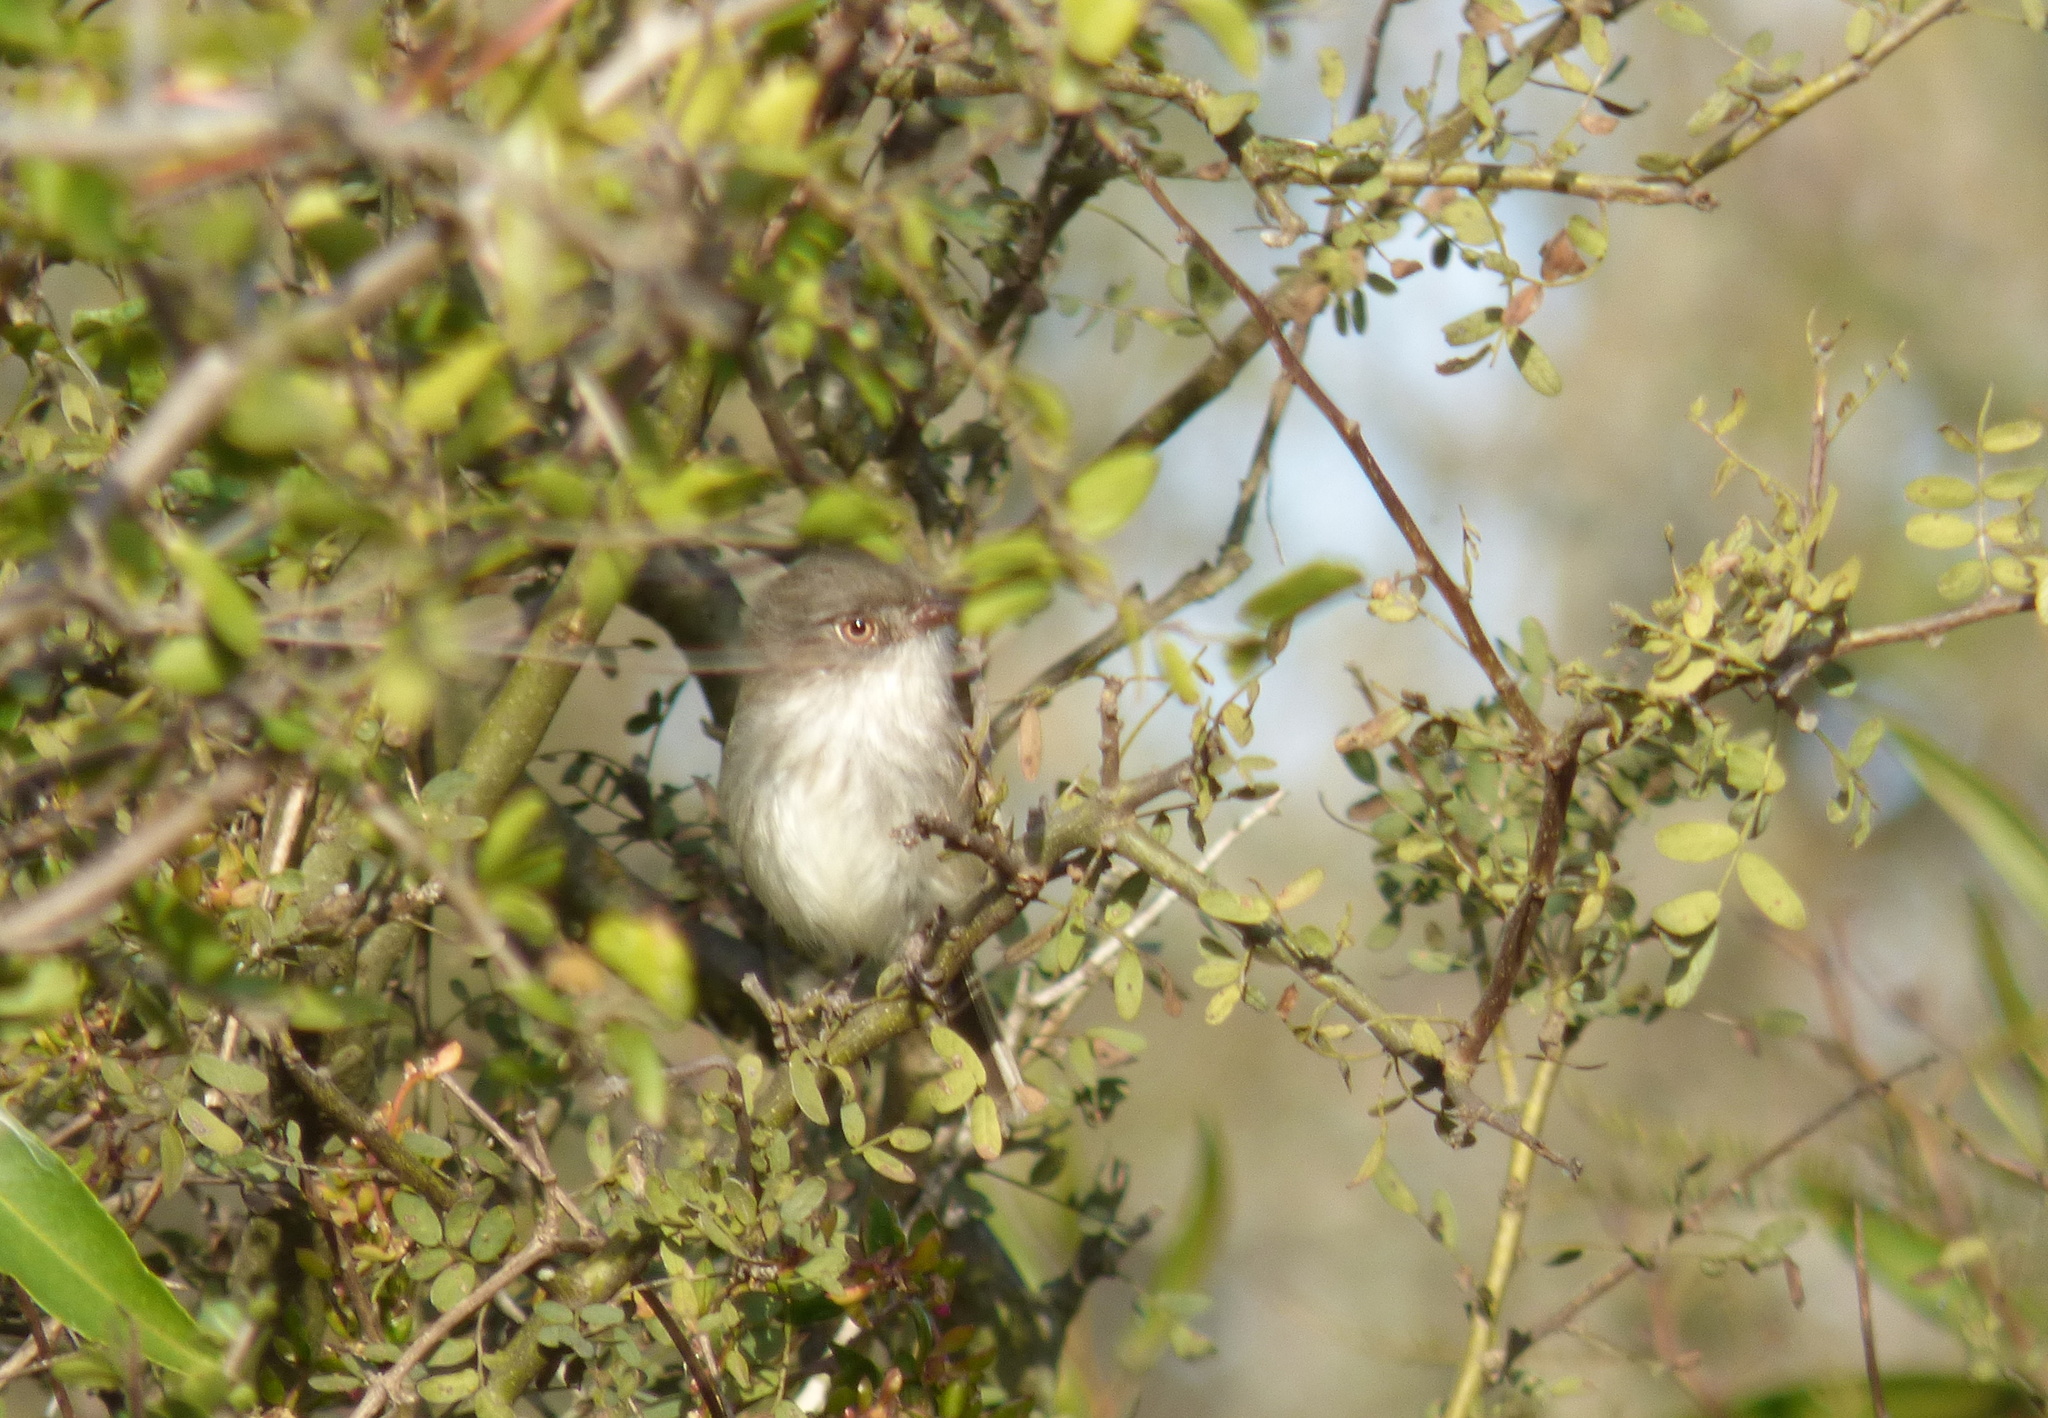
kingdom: Animalia
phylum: Chordata
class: Aves
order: Passeriformes
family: Tyrannidae
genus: Hemitriccus
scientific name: Hemitriccus margaritaceiventer
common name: Pearly-vented tody-tyrant
